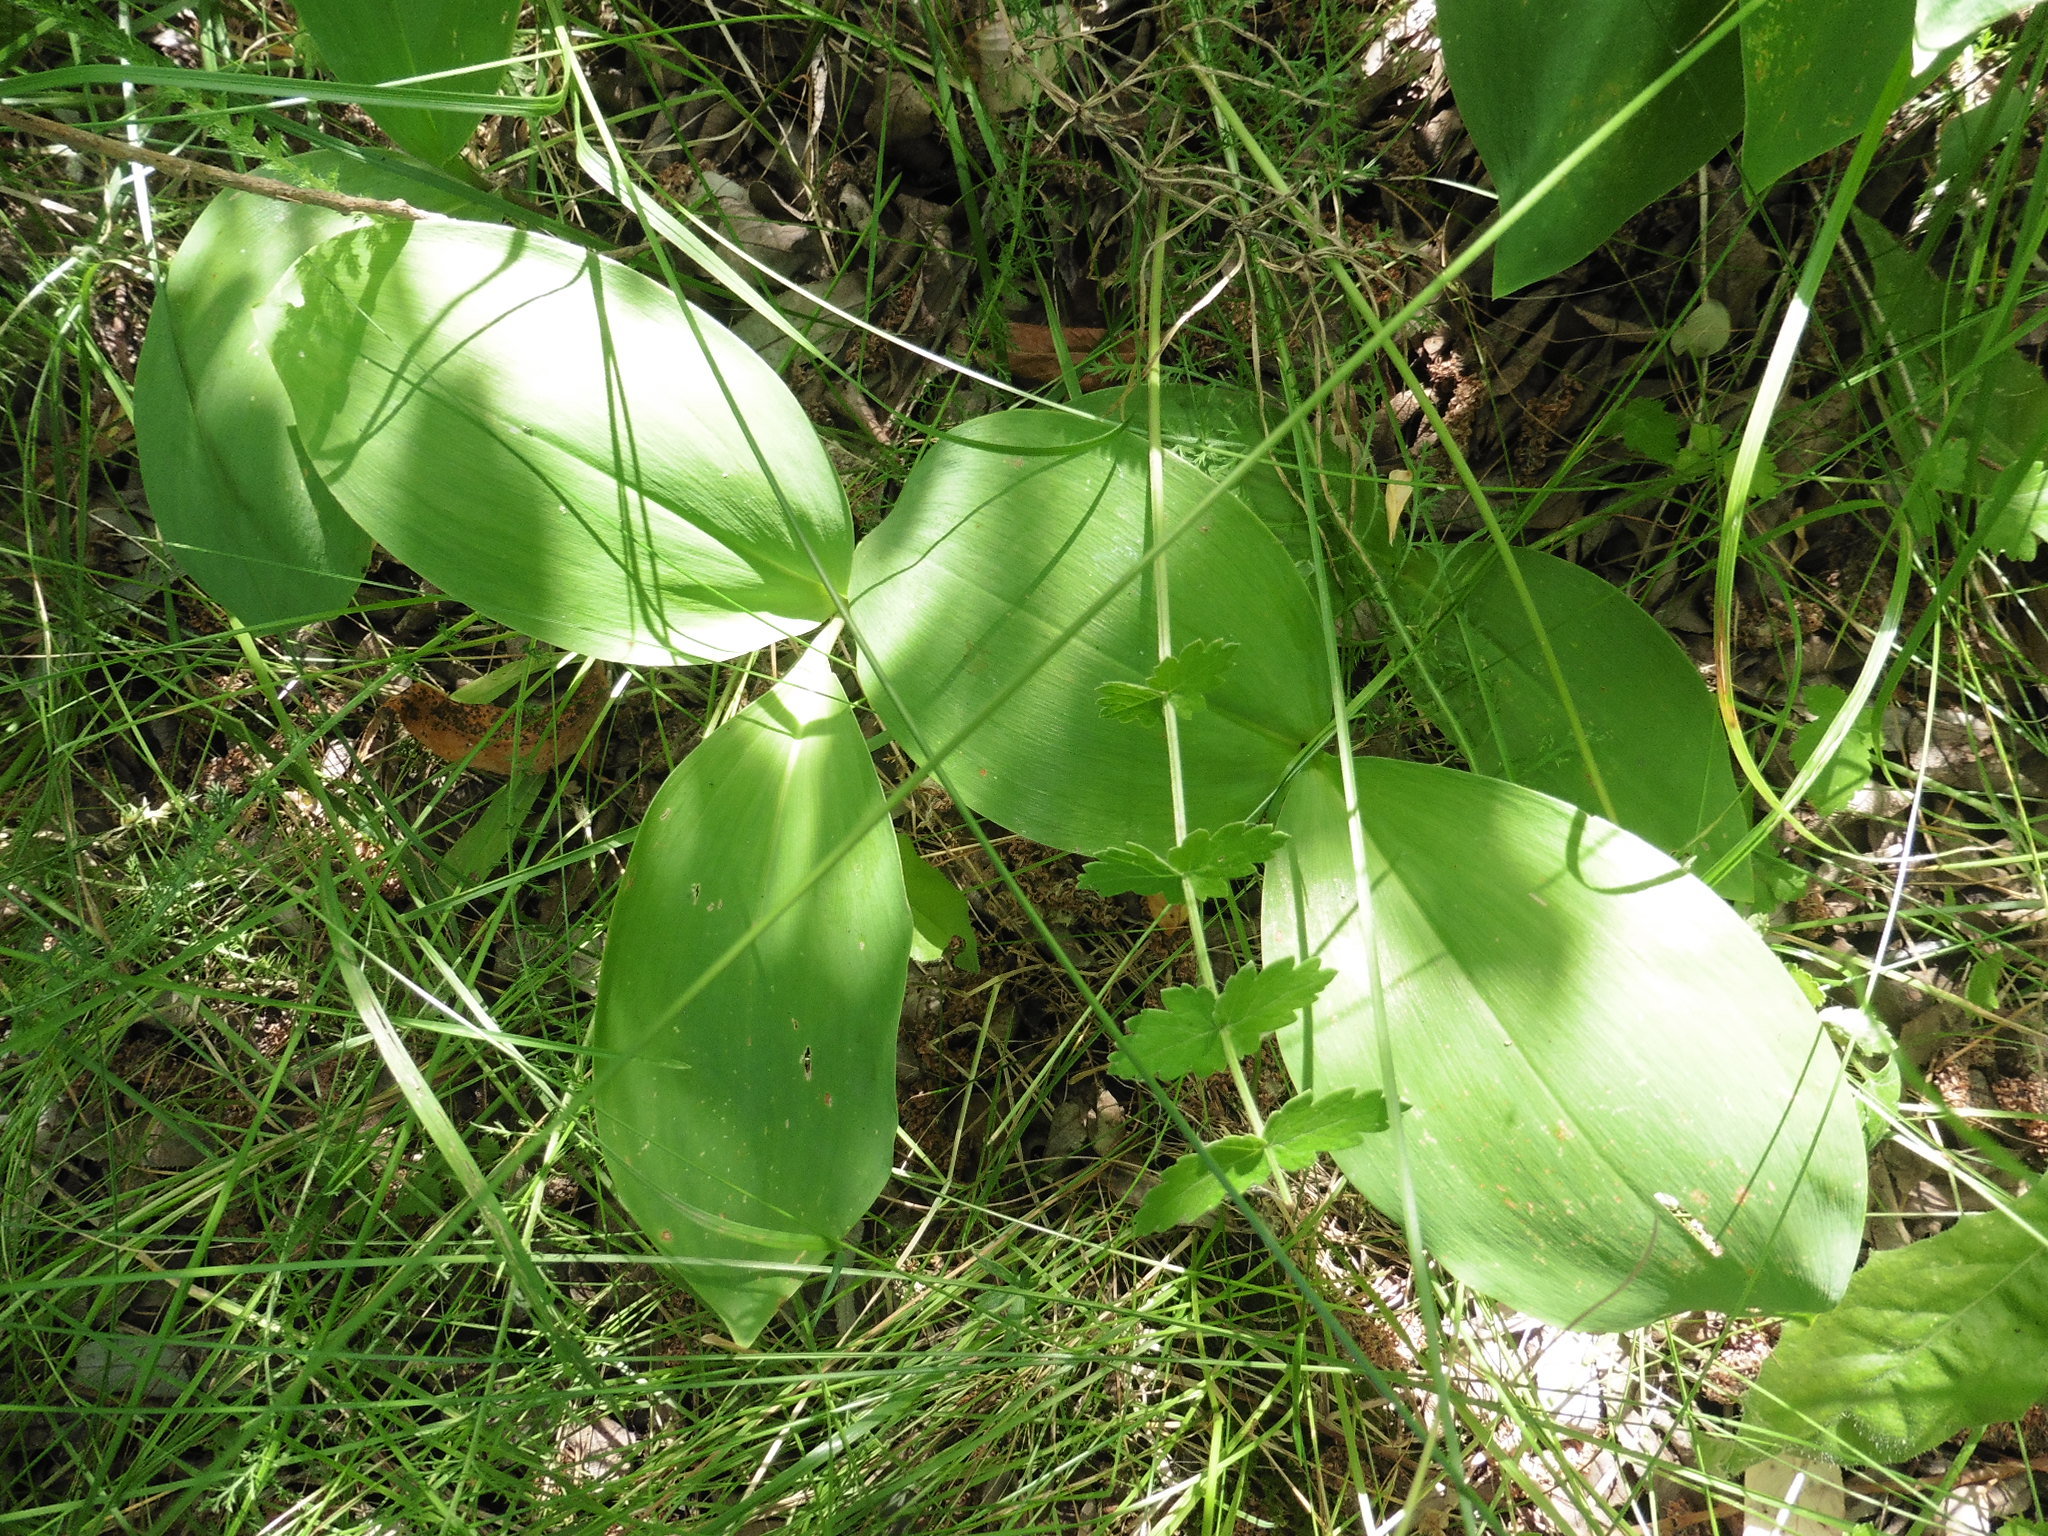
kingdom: Plantae
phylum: Tracheophyta
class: Liliopsida
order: Asparagales
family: Asparagaceae
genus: Convallaria
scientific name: Convallaria majalis
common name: Lily-of-the-valley
